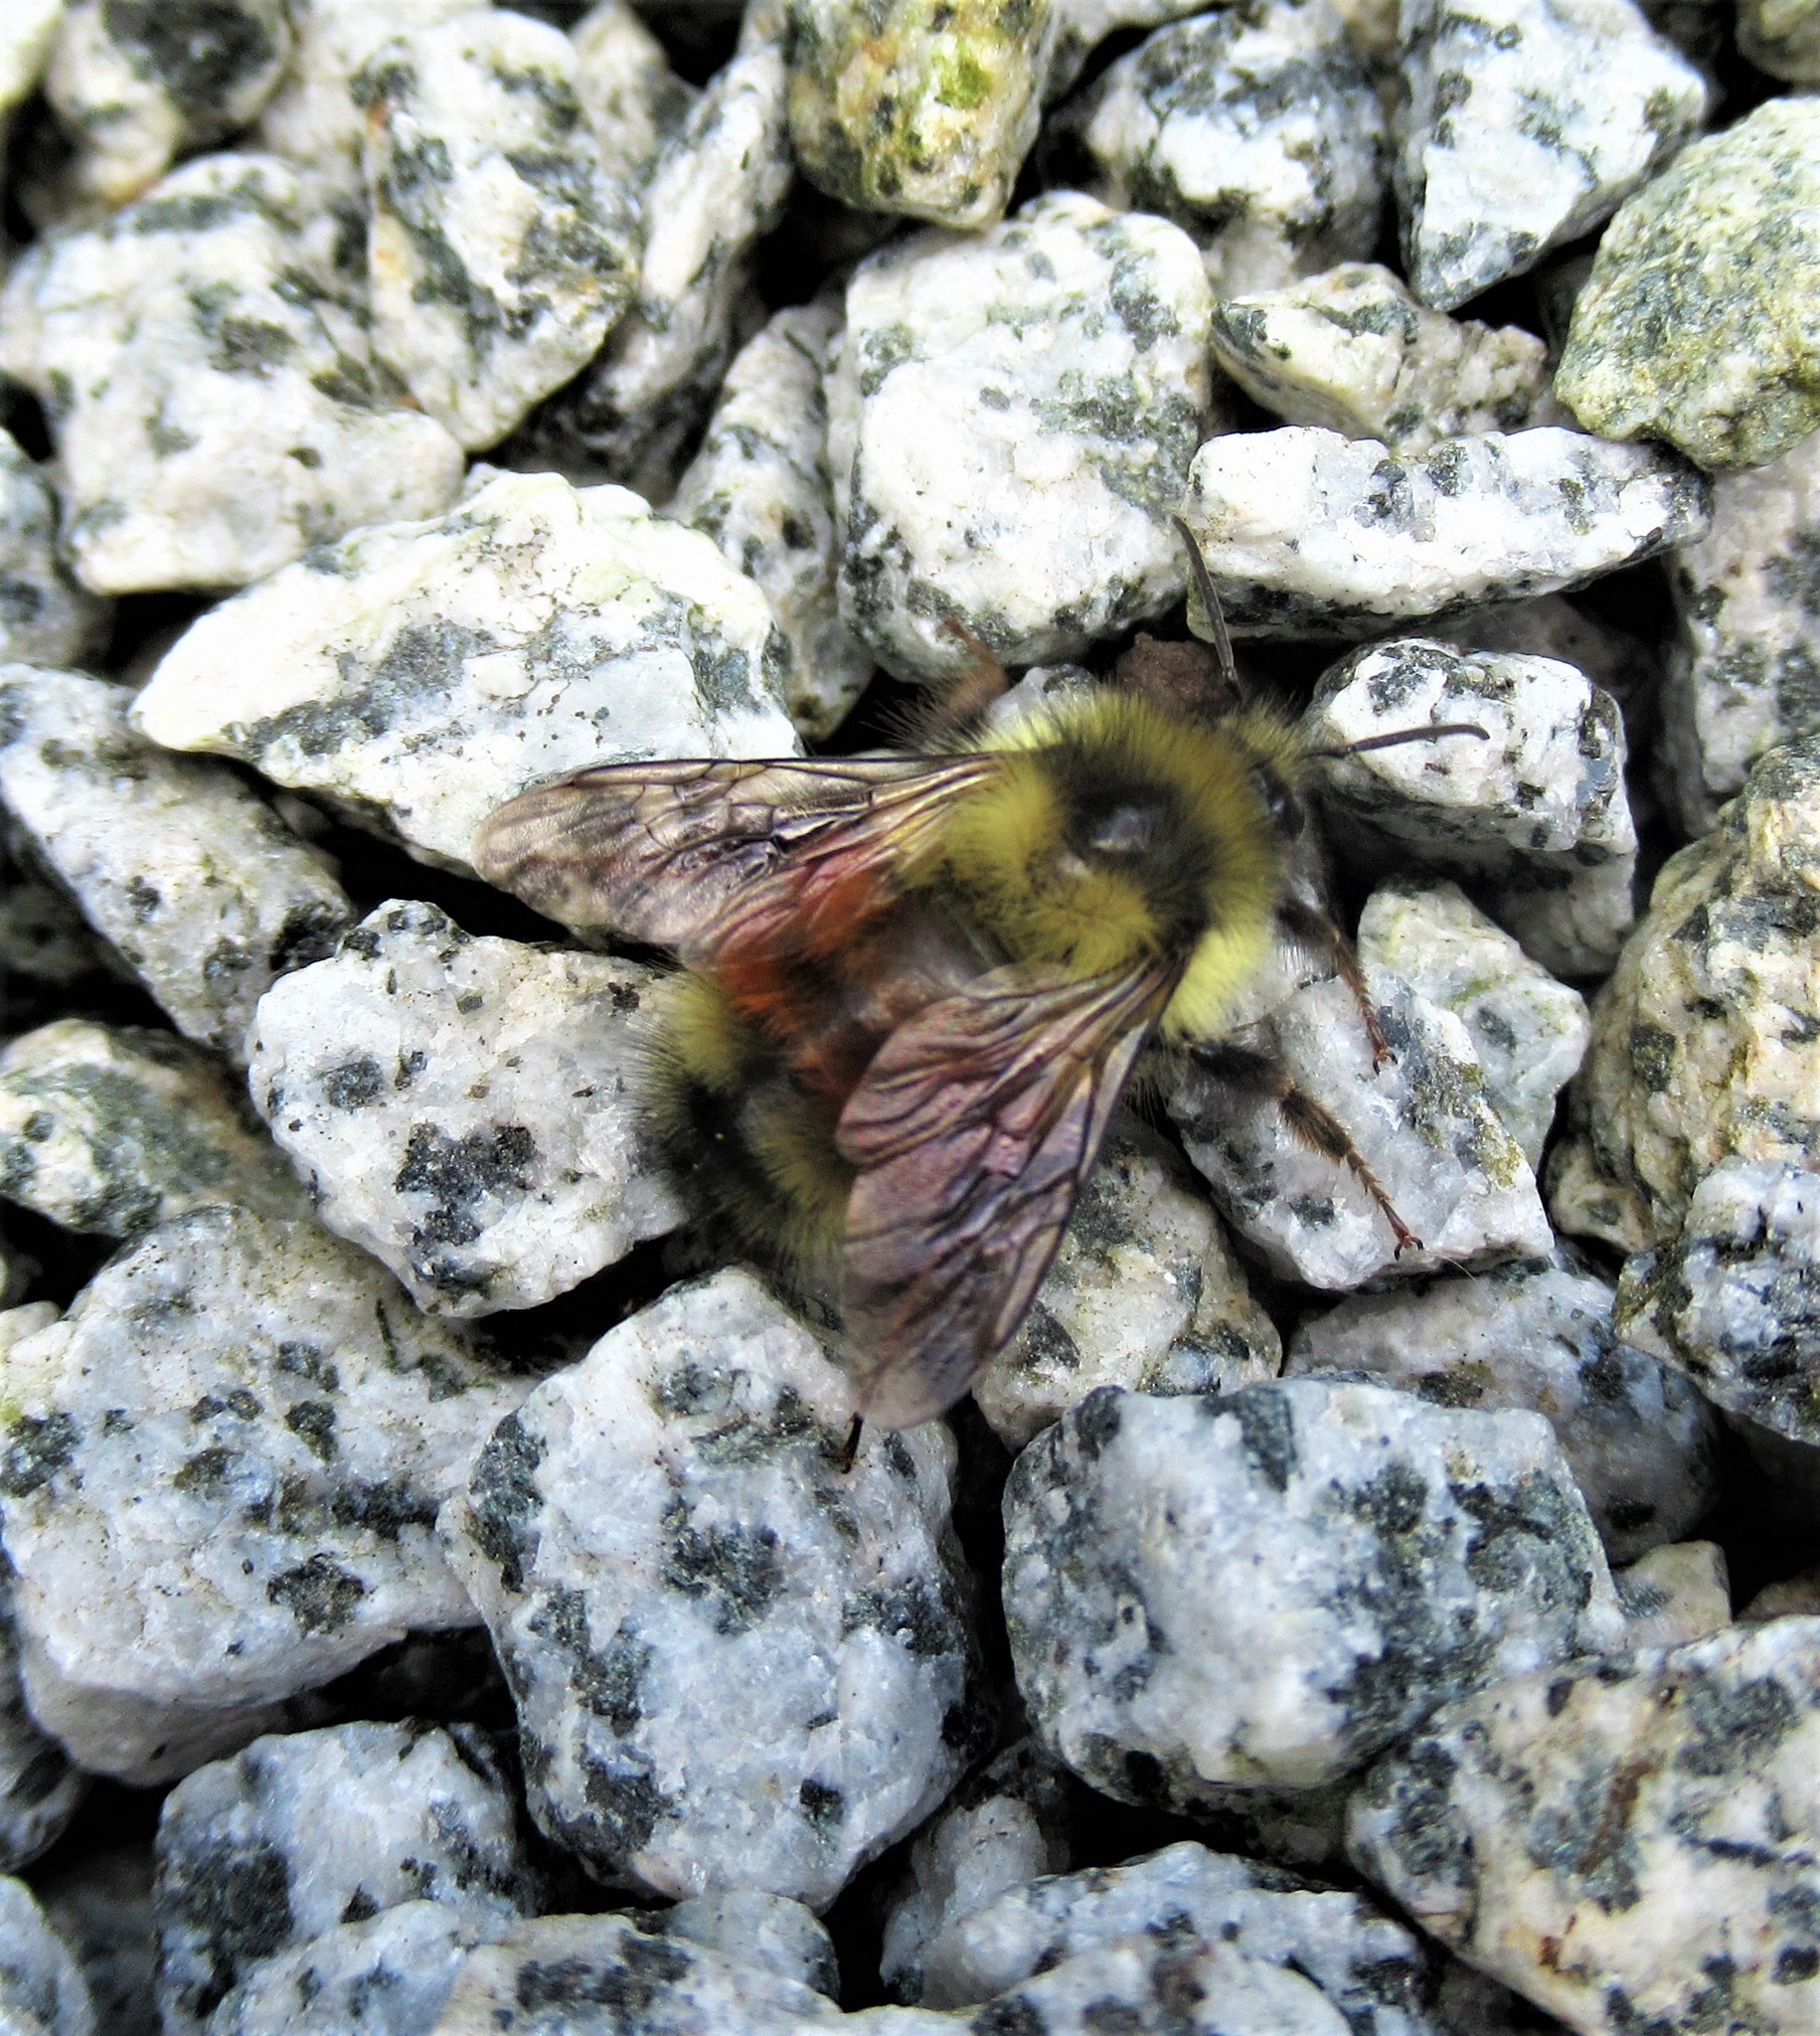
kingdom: Animalia
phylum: Arthropoda
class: Insecta
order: Hymenoptera
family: Apidae
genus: Bombus
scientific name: Bombus melanopygus
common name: Black tail bumble bee
